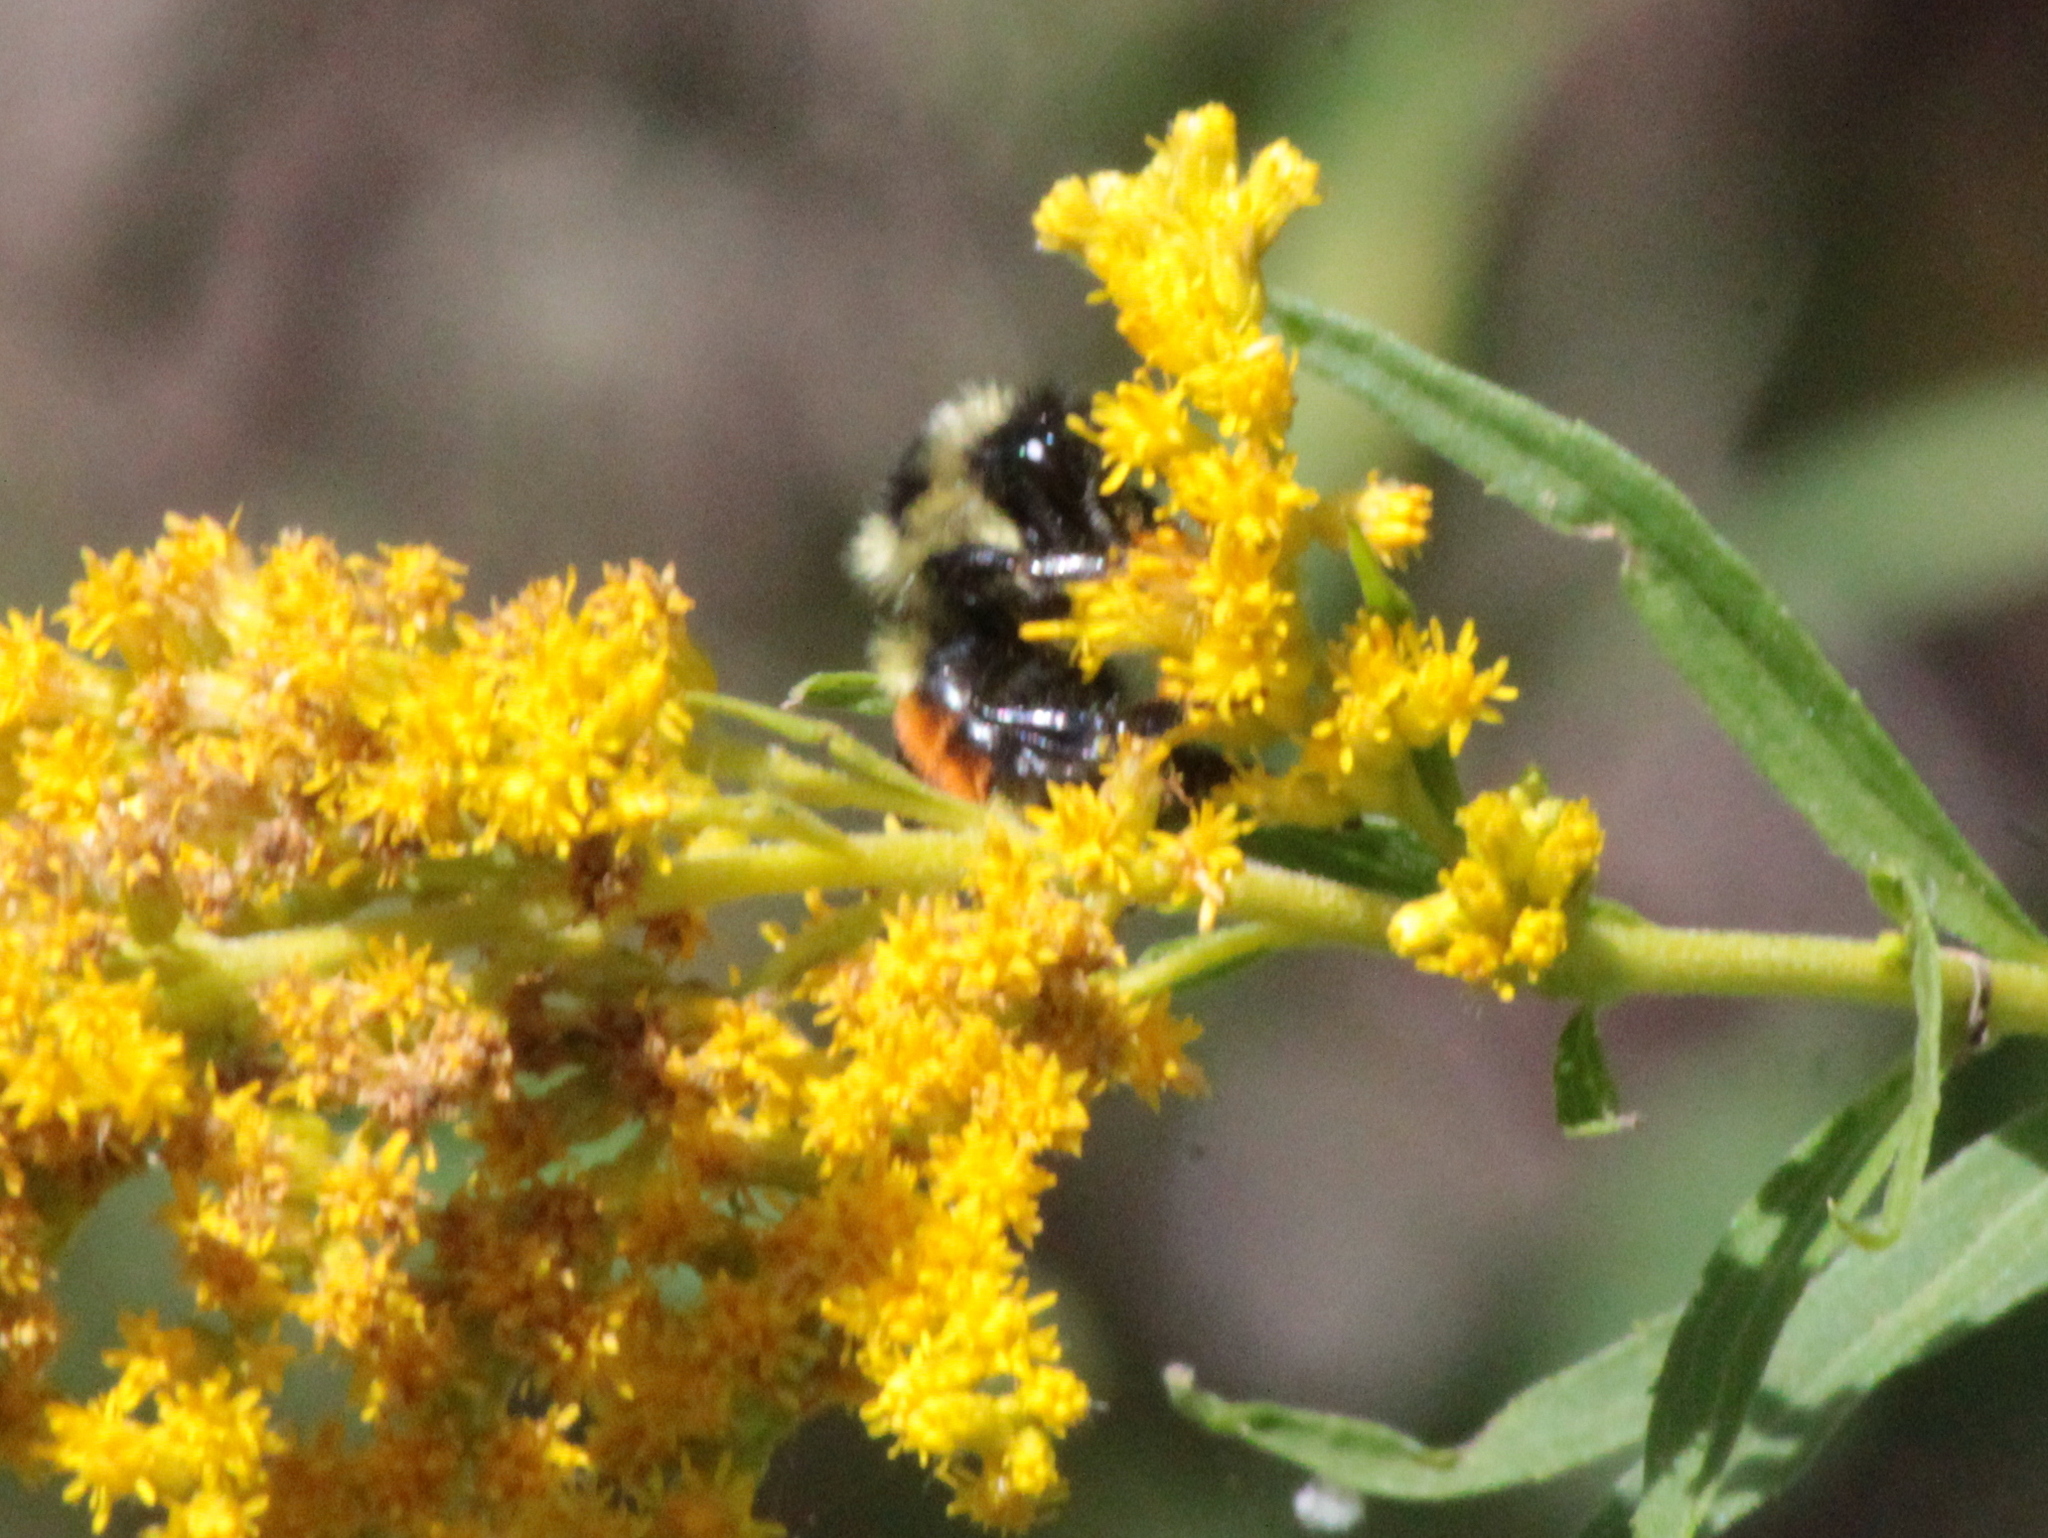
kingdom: Animalia
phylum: Arthropoda
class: Insecta
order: Hymenoptera
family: Apidae
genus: Bombus
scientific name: Bombus ternarius
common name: Tri-colored bumble bee
